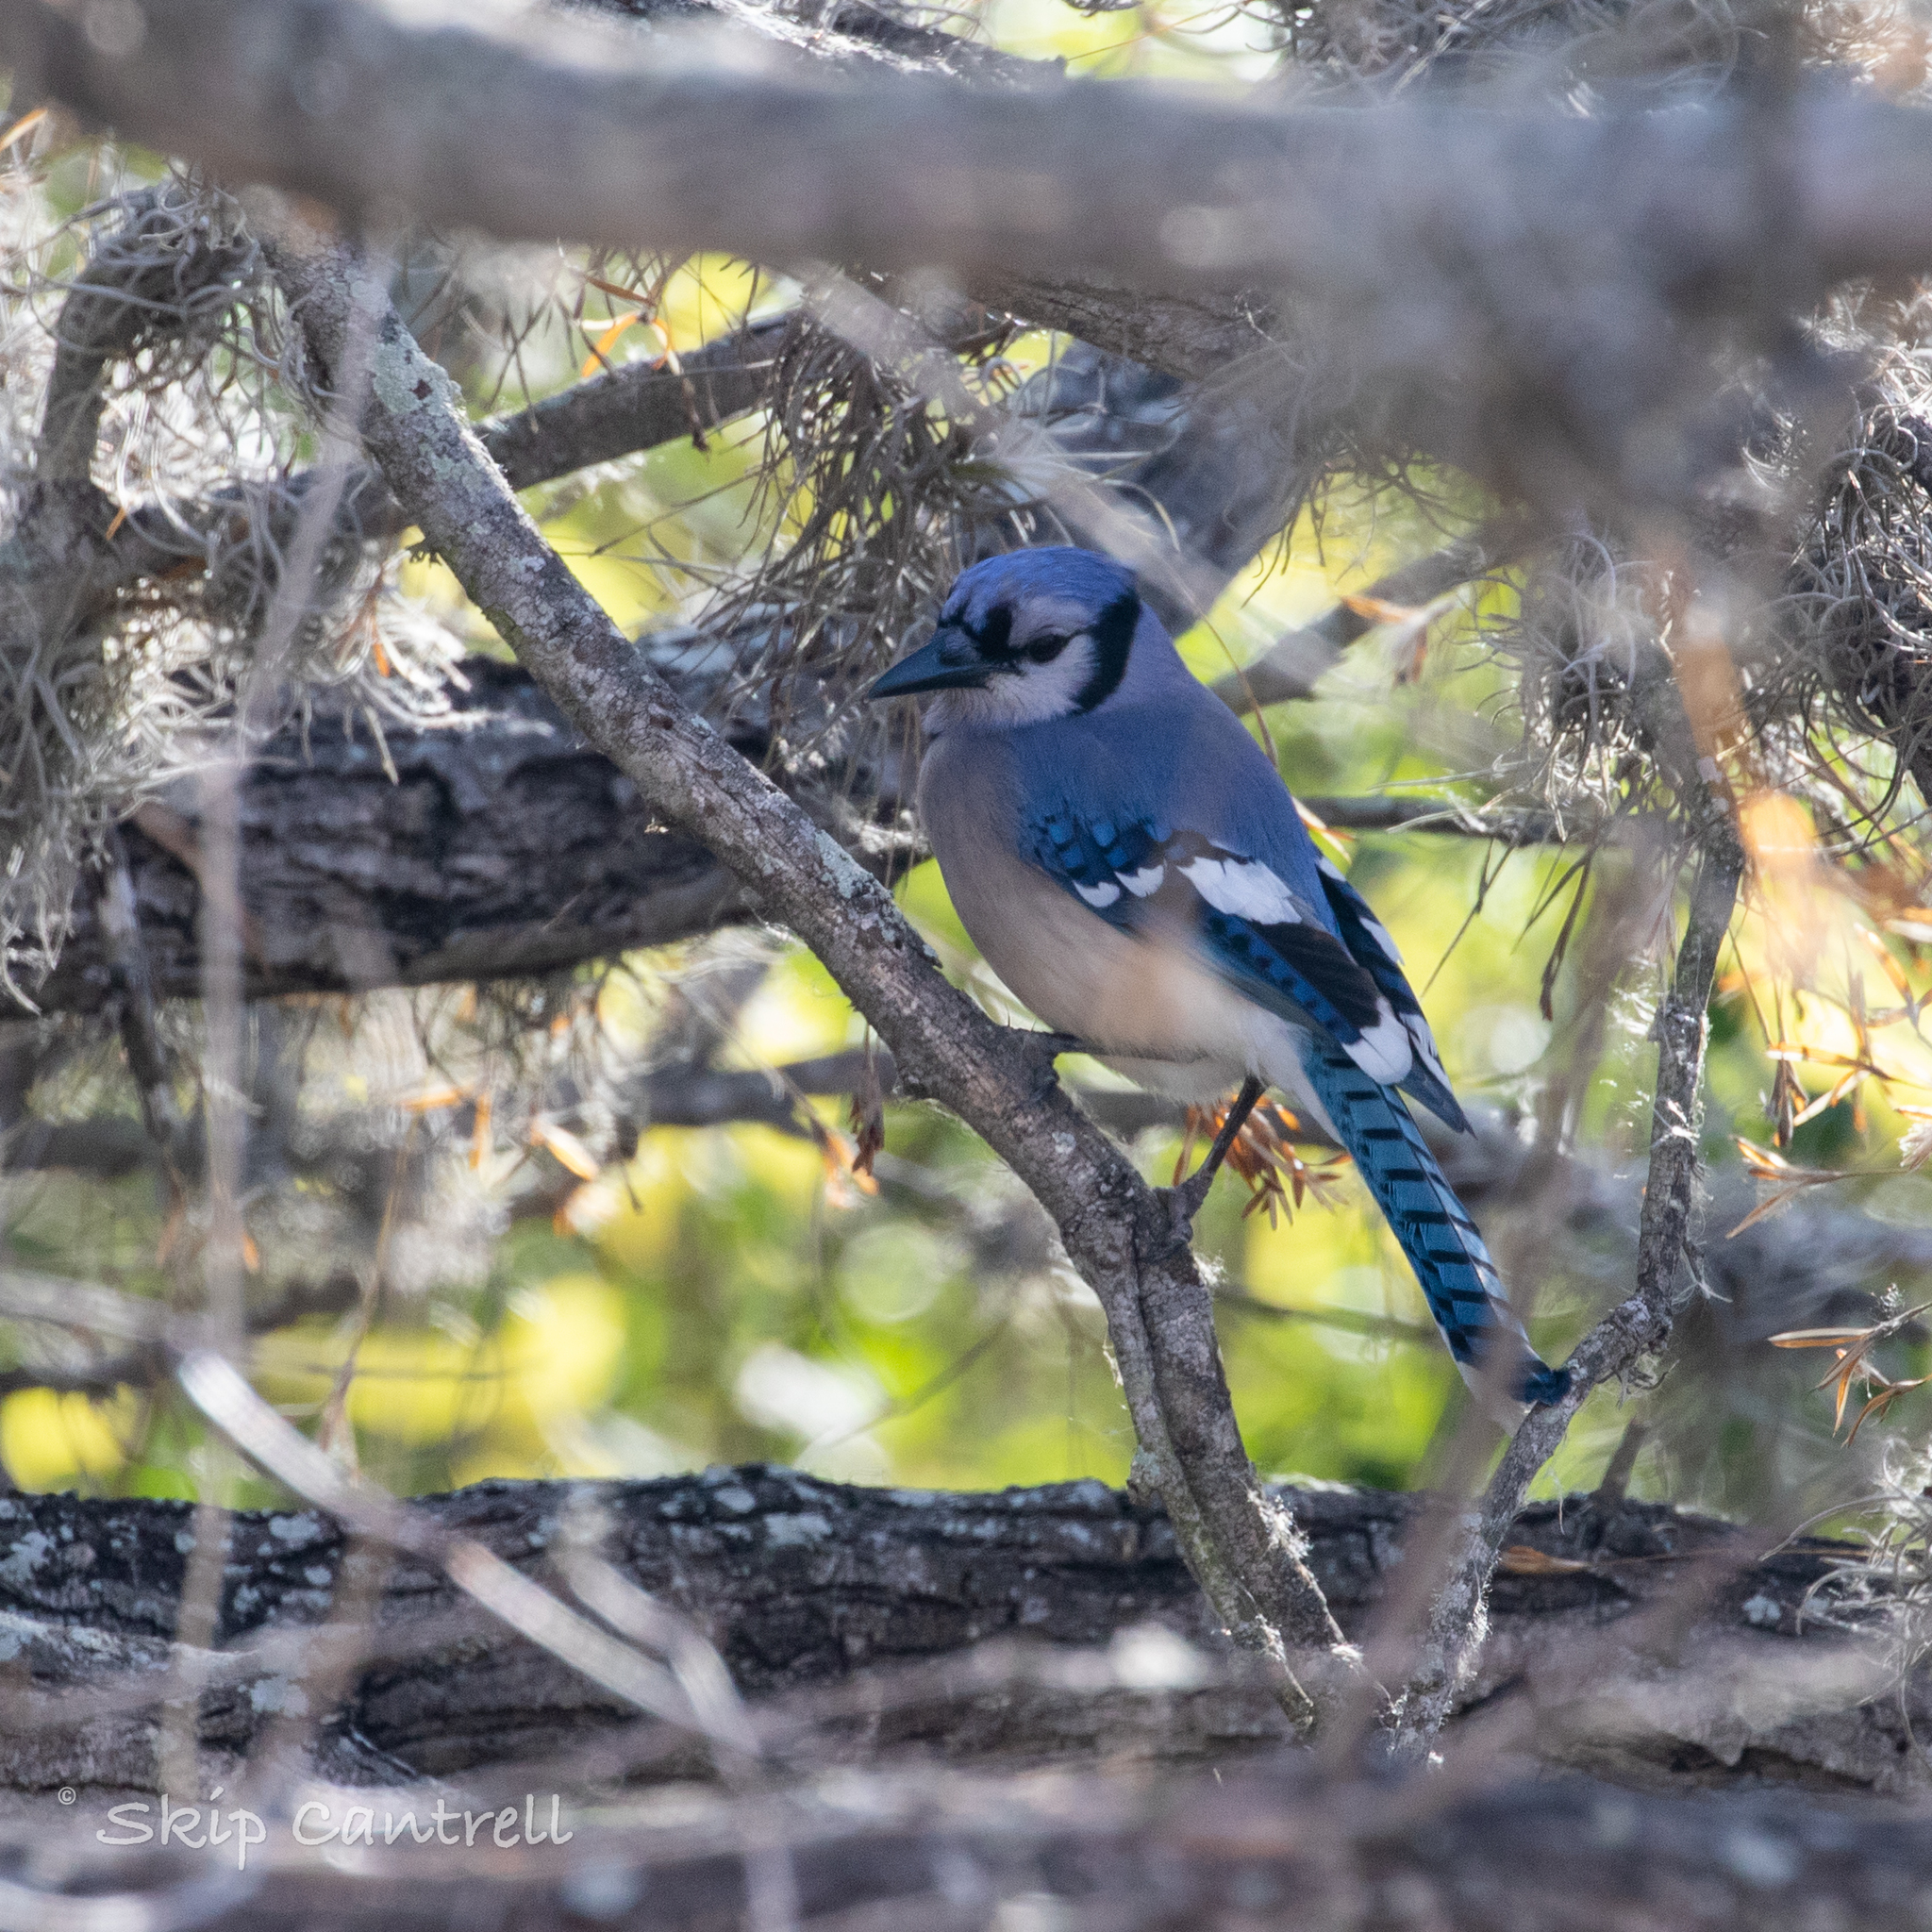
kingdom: Animalia
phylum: Chordata
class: Aves
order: Passeriformes
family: Corvidae
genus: Cyanocitta
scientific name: Cyanocitta cristata
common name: Blue jay
